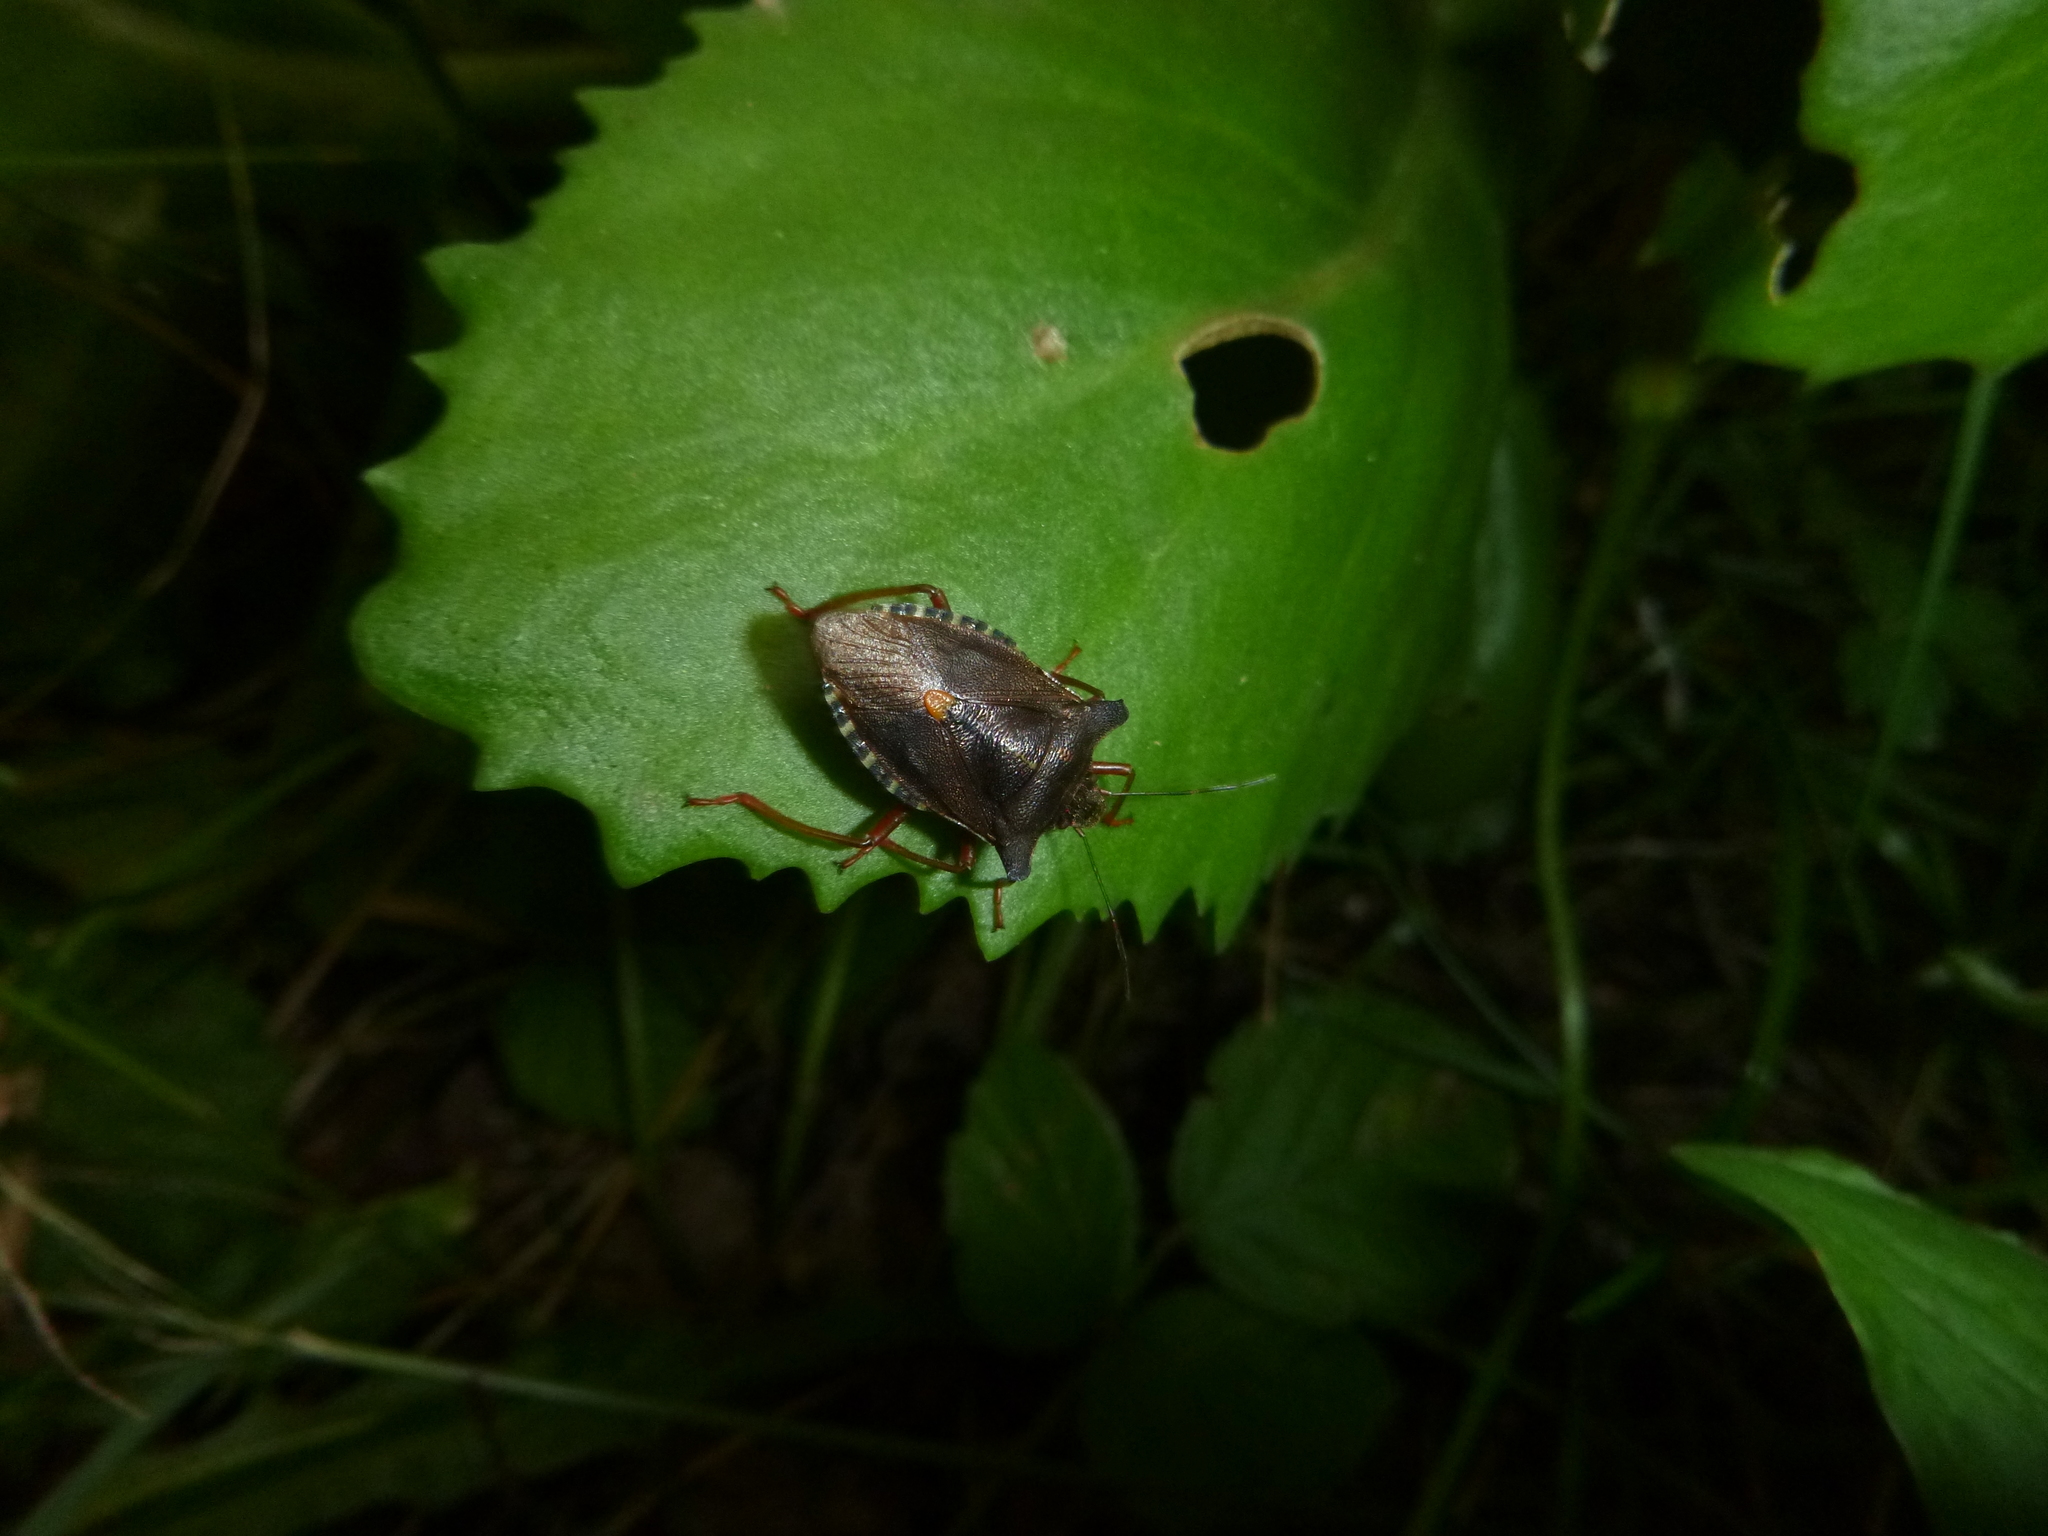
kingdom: Animalia
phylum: Arthropoda
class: Insecta
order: Hemiptera
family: Pentatomidae
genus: Pentatoma
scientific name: Pentatoma rufipes
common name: Forest bug
